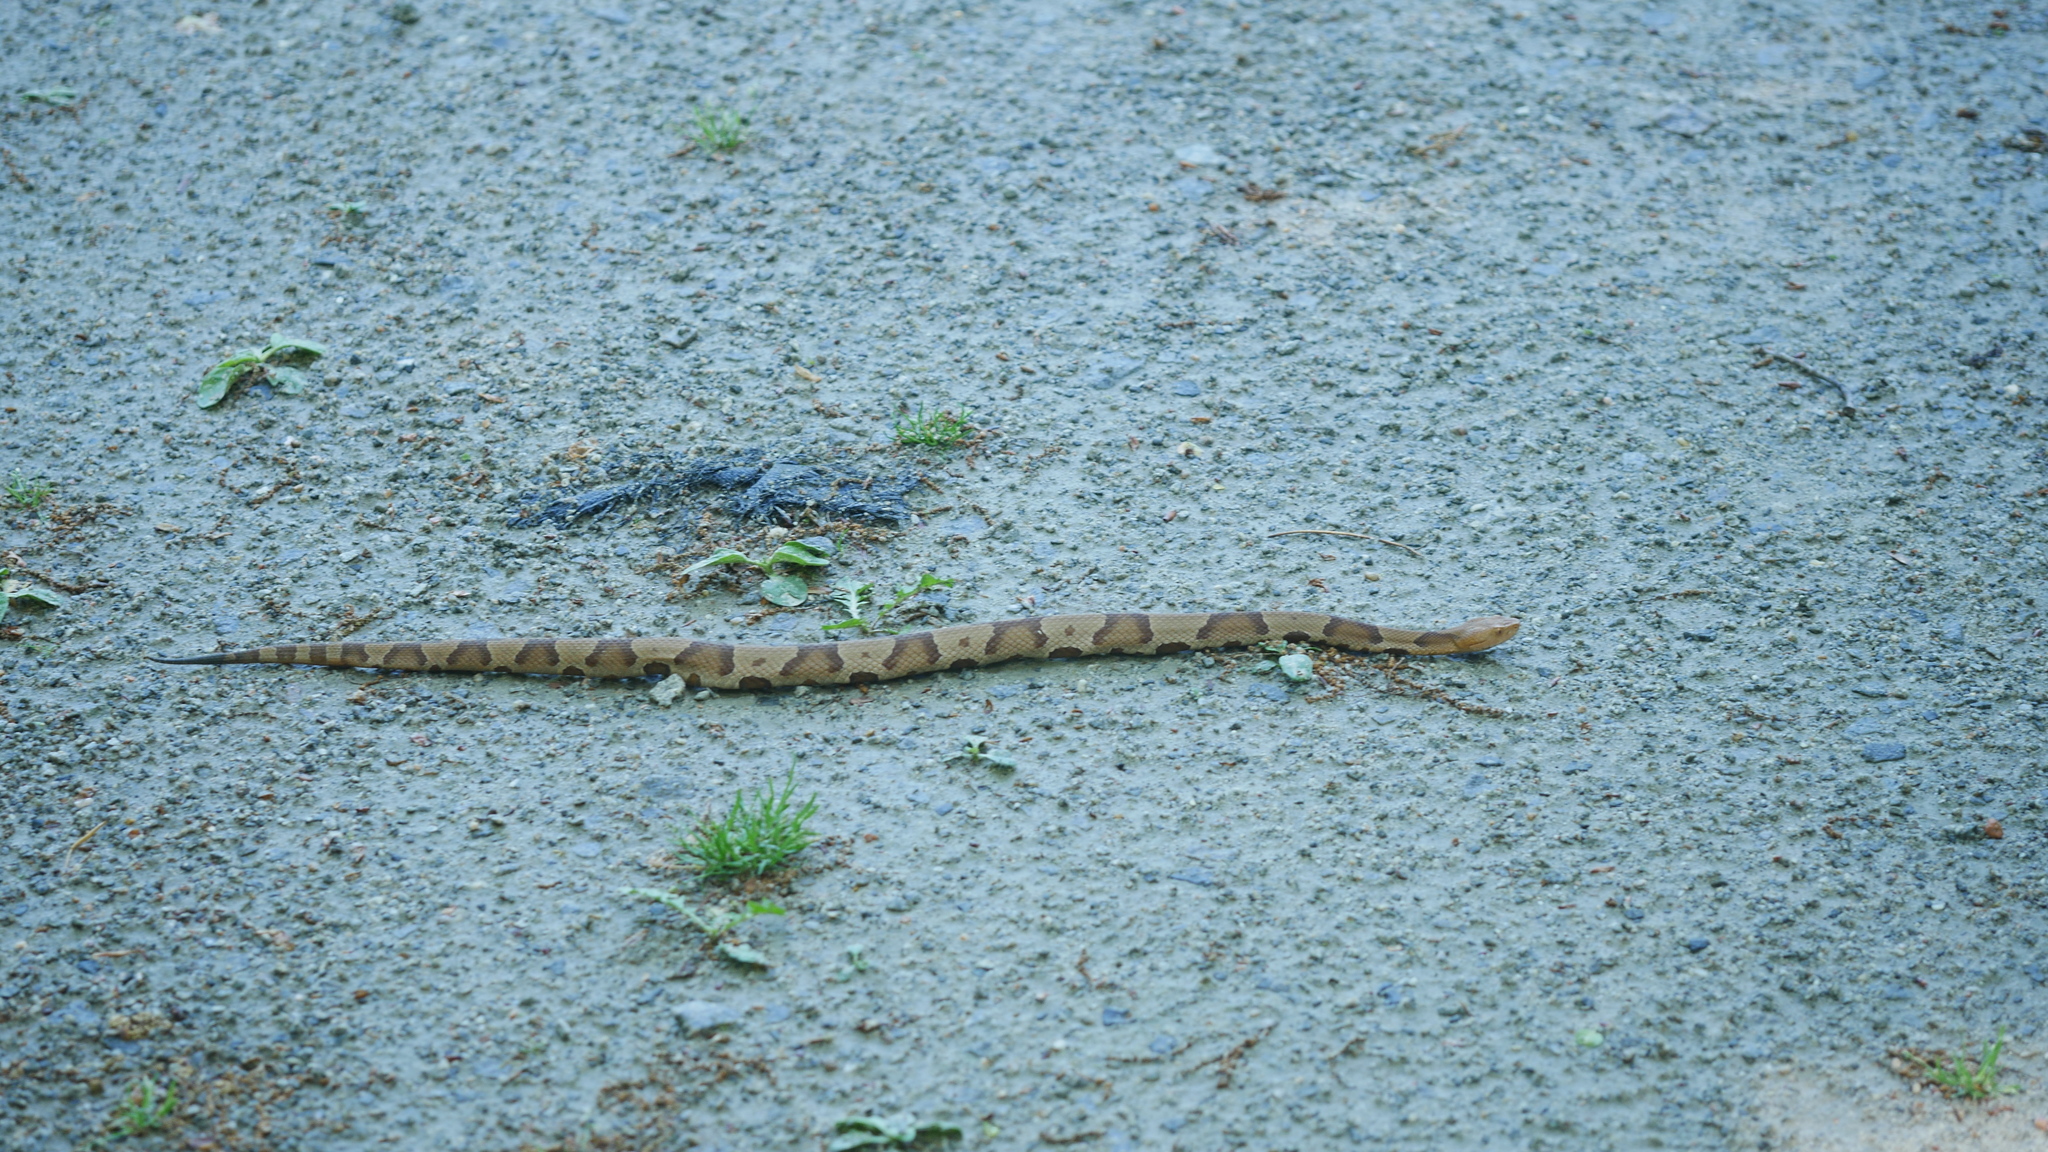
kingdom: Animalia
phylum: Chordata
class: Squamata
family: Viperidae
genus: Agkistrodon
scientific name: Agkistrodon contortrix
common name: Northern copperhead
